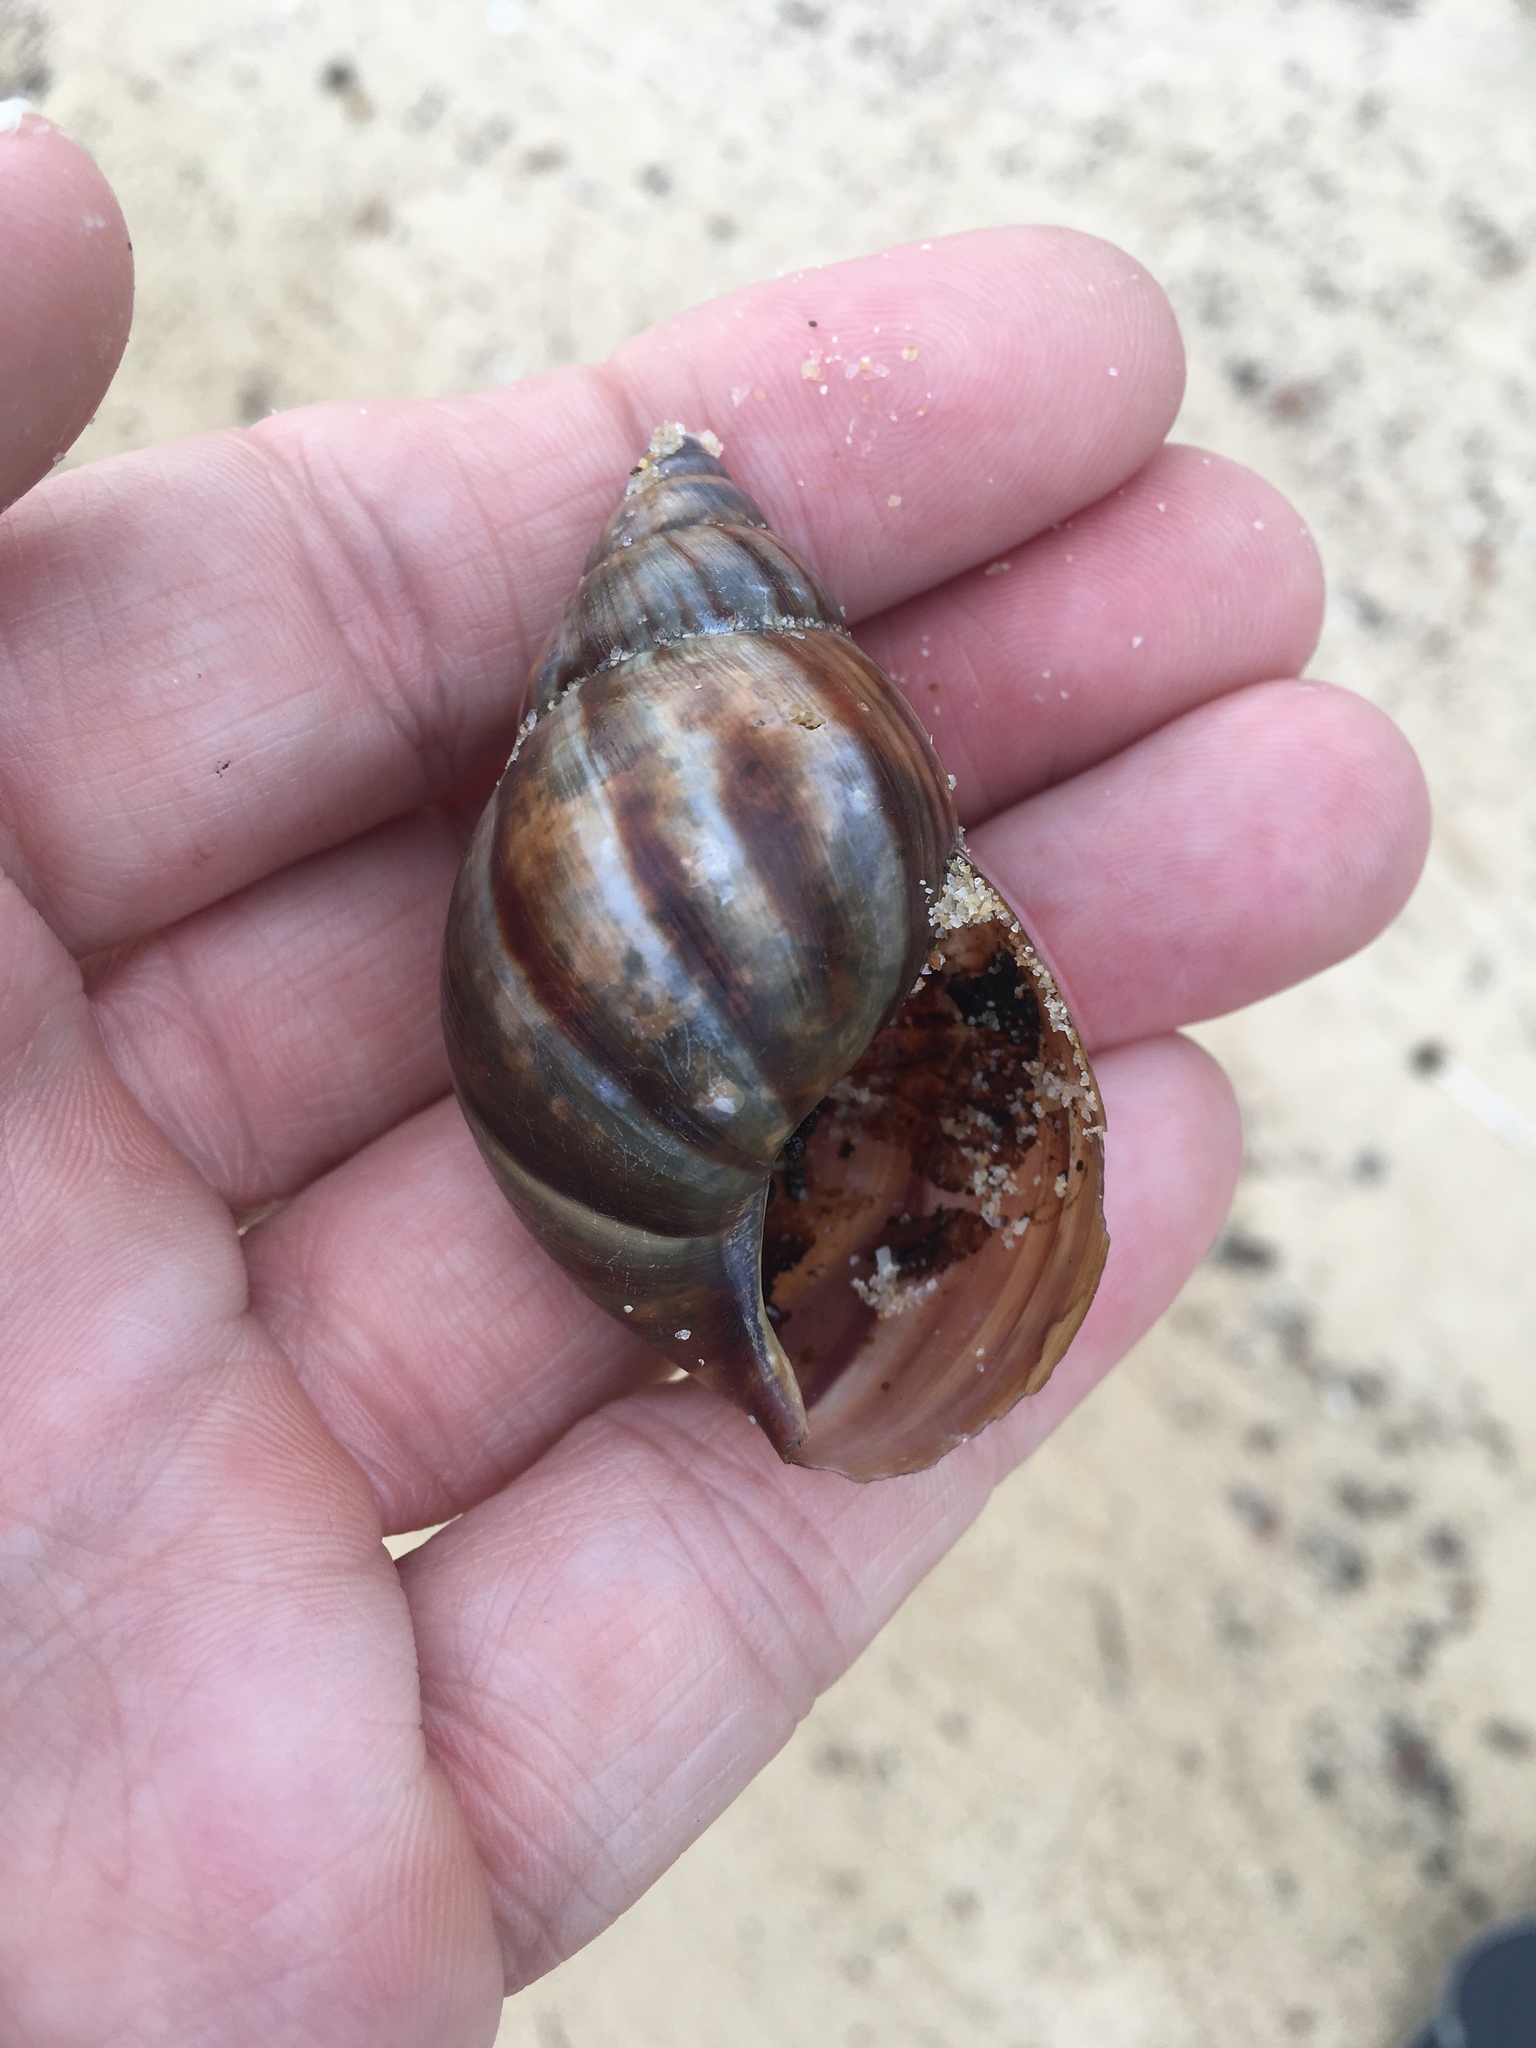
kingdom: Animalia
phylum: Mollusca
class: Gastropoda
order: Stylommatophora
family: Achatinidae
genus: Lissachatina
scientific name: Lissachatina fulica
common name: Giant african snail
